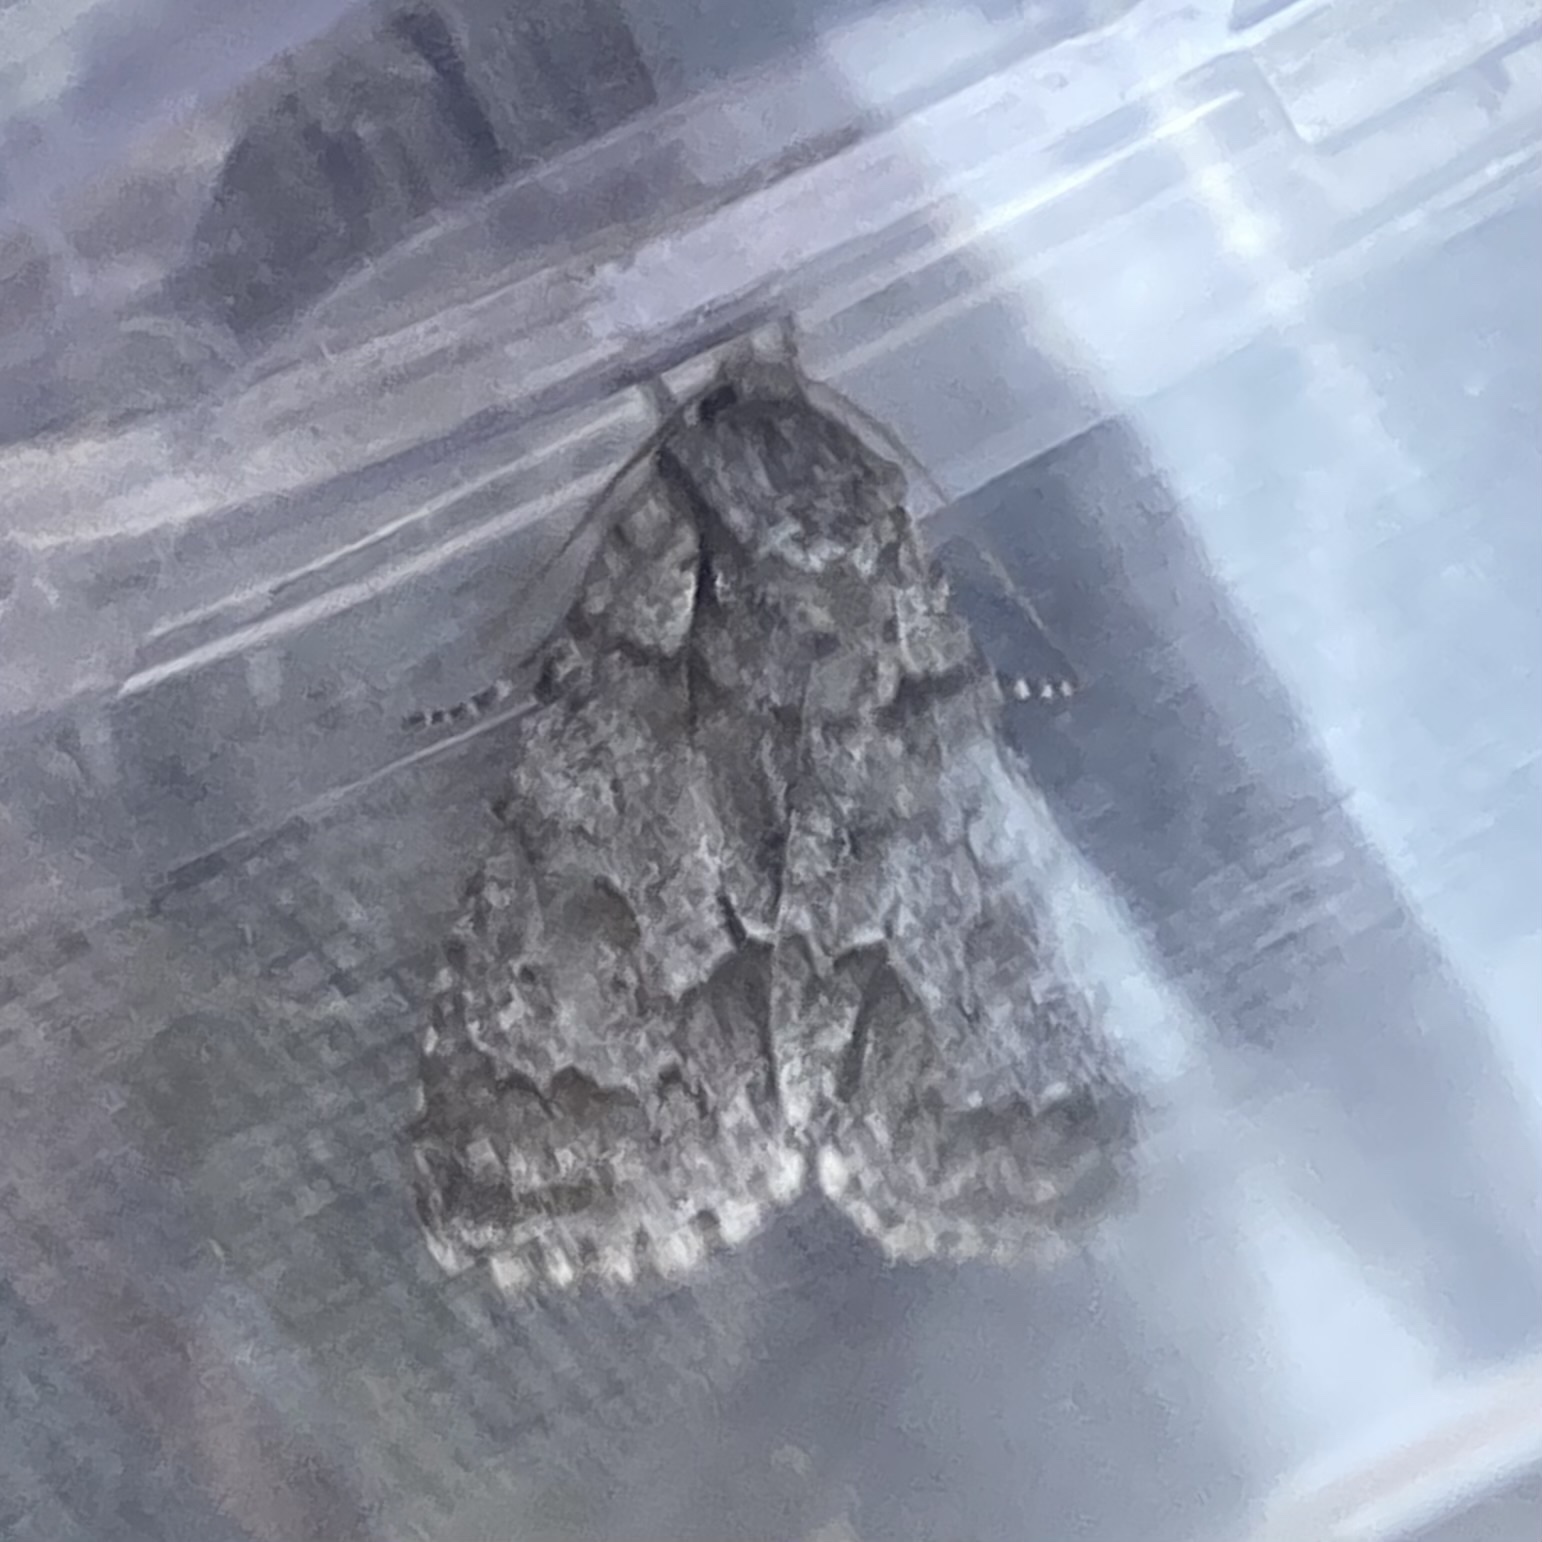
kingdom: Animalia
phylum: Arthropoda
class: Insecta
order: Lepidoptera
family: Noctuidae
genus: Acronicta
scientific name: Acronicta grisea
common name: Gray dagger
